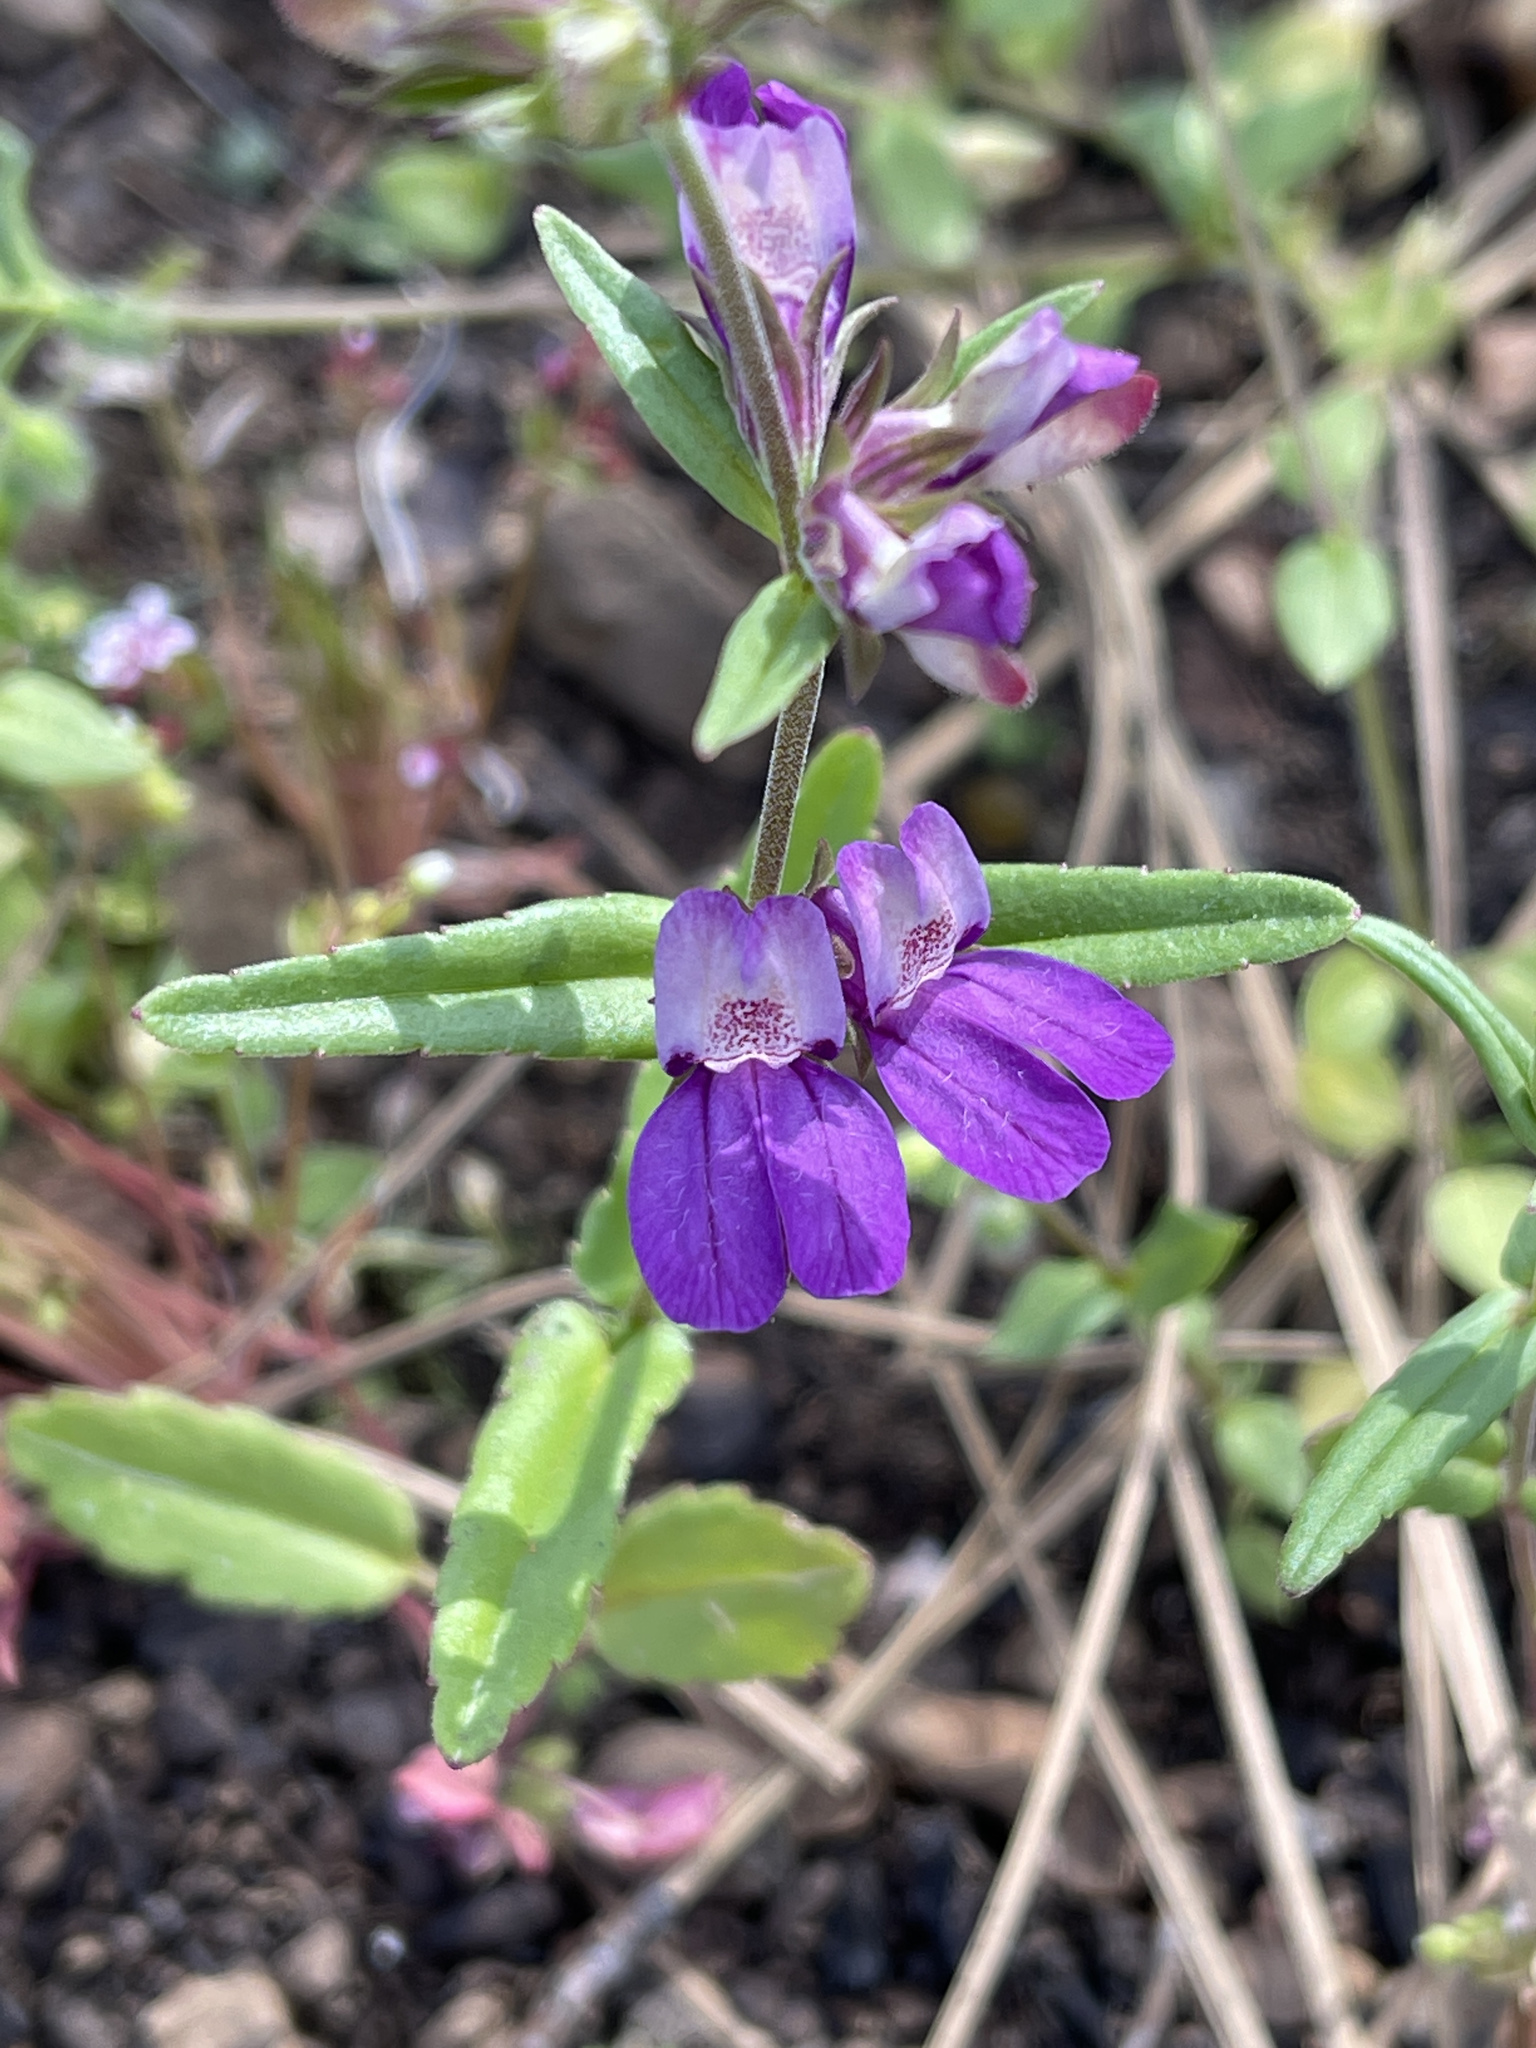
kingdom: Plantae
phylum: Tracheophyta
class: Magnoliopsida
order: Lamiales
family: Plantaginaceae
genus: Collinsia
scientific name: Collinsia heterophylla
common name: Chinese-houses
